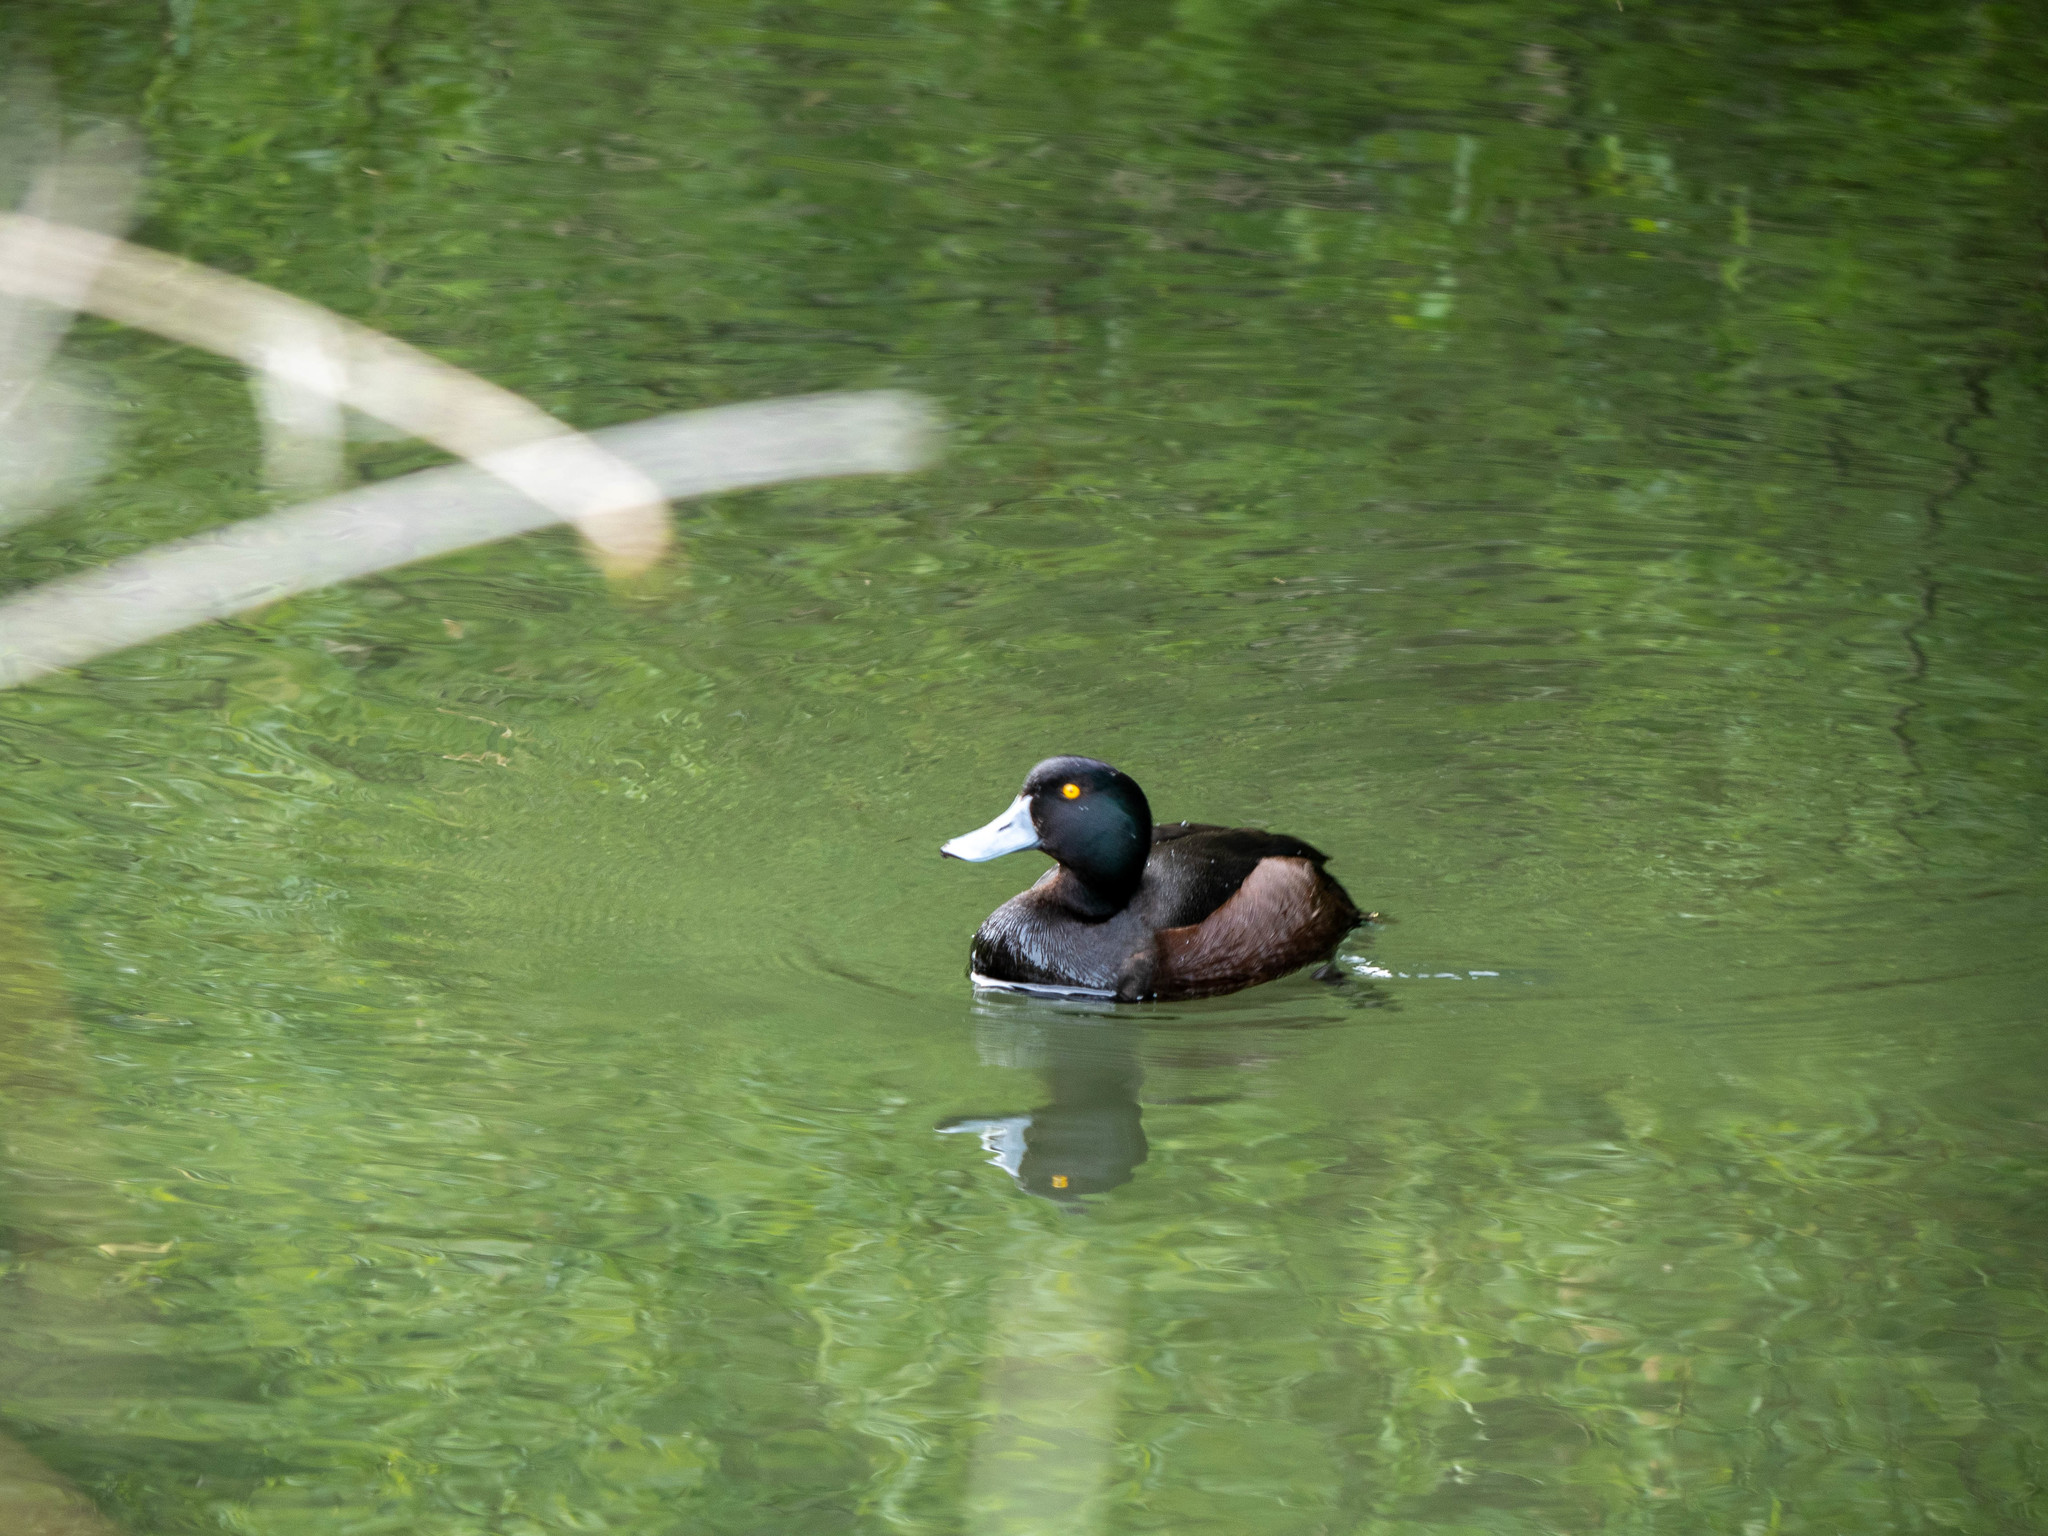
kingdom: Animalia
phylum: Chordata
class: Aves
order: Anseriformes
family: Anatidae
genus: Aythya
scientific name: Aythya novaeseelandiae
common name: New zealand scaup
